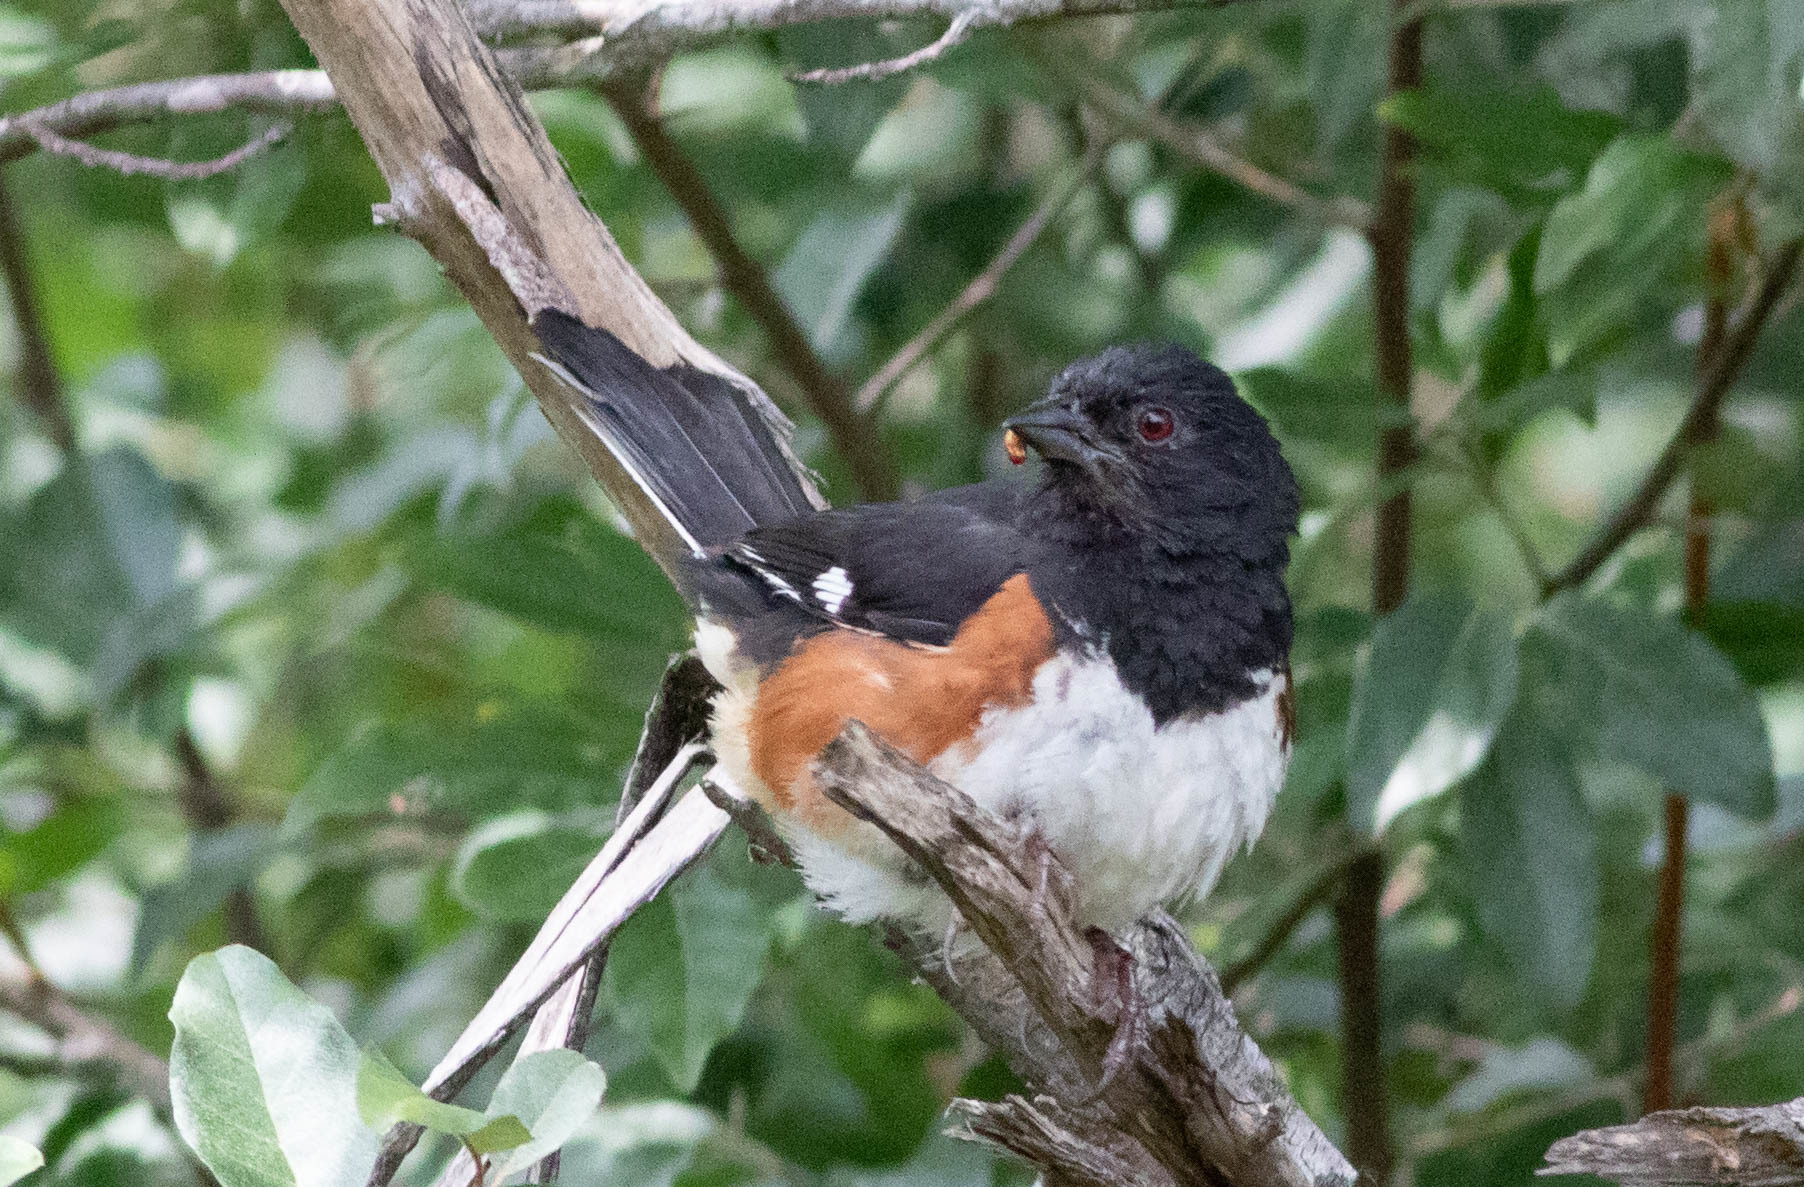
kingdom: Animalia
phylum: Chordata
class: Aves
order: Passeriformes
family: Passerellidae
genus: Pipilo
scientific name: Pipilo erythrophthalmus
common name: Eastern towhee
